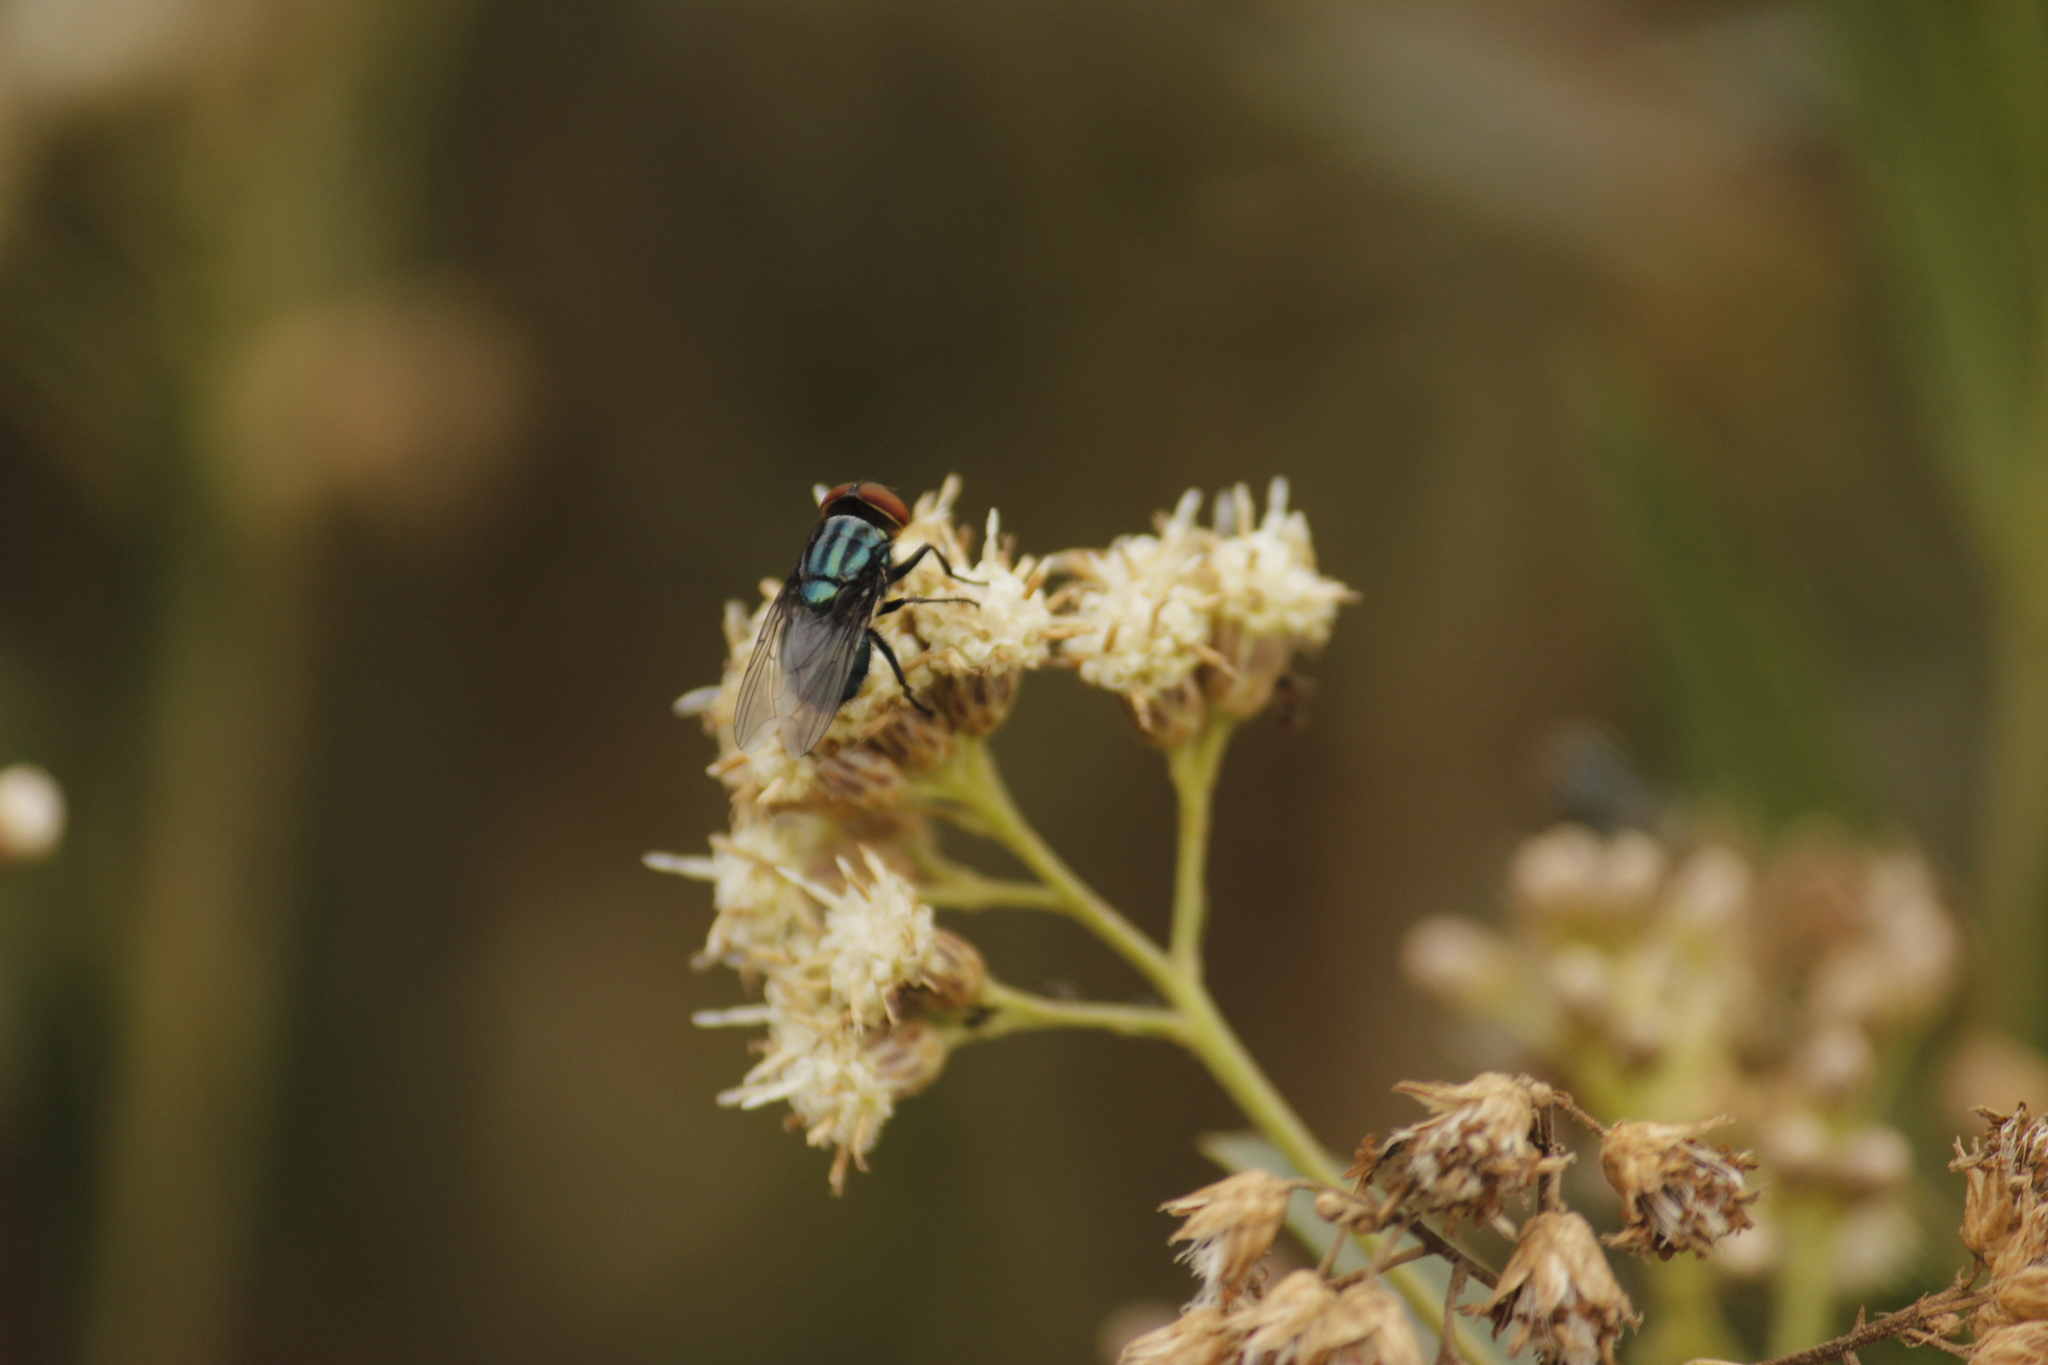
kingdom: Animalia
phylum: Arthropoda
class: Insecta
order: Diptera
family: Calliphoridae
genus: Cochliomyia
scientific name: Cochliomyia macellaria
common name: Secondary screwworm
